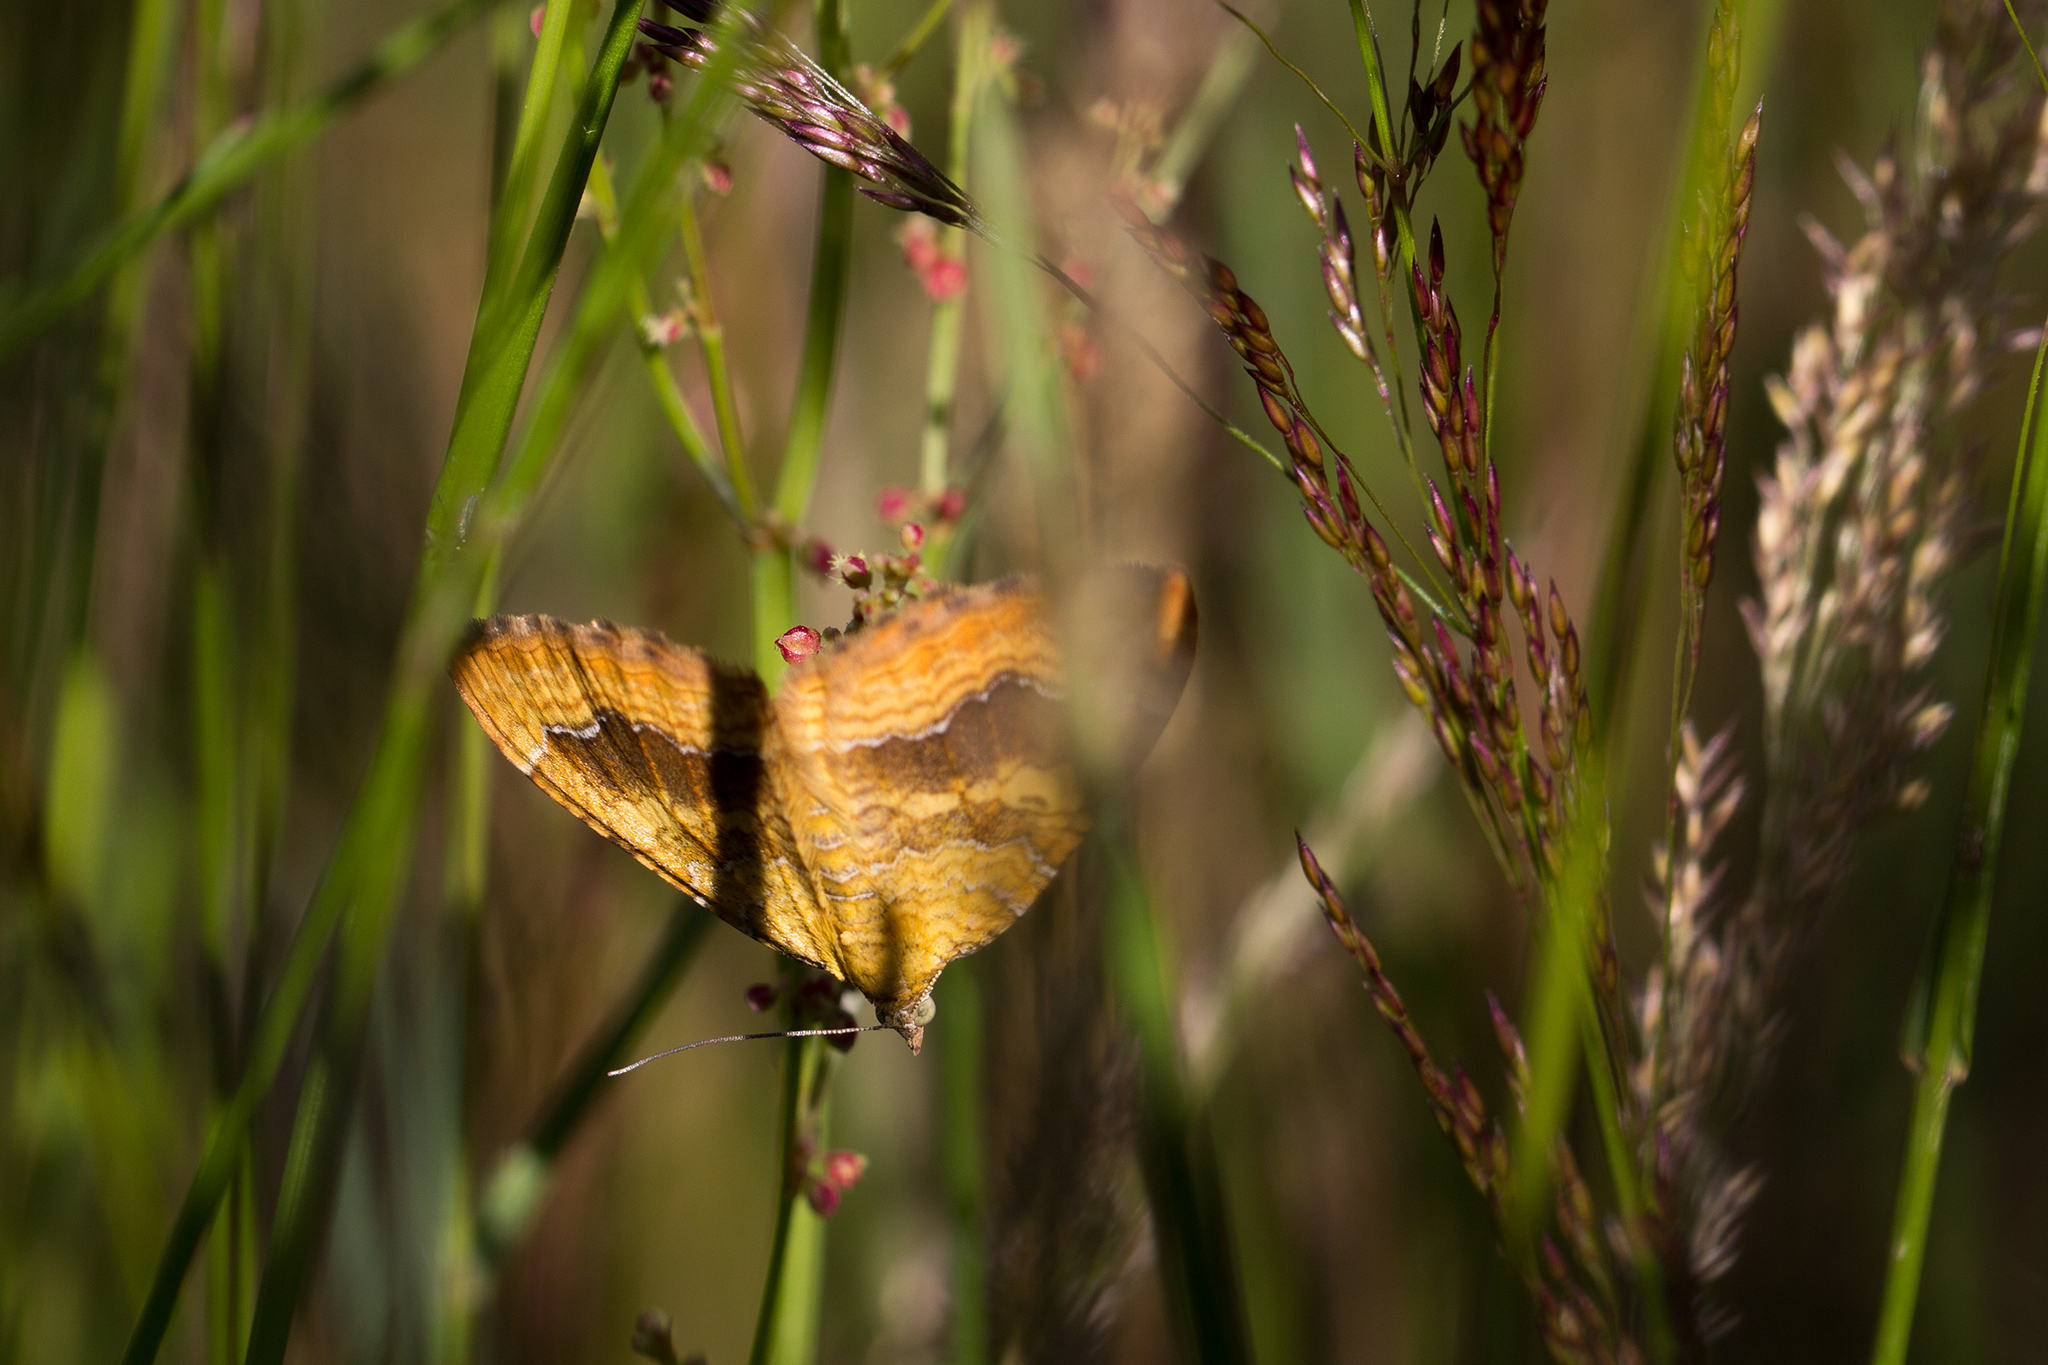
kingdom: Animalia
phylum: Arthropoda
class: Insecta
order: Lepidoptera
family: Geometridae
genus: Camptogramma
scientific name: Camptogramma bilineata
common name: Yellow shell
